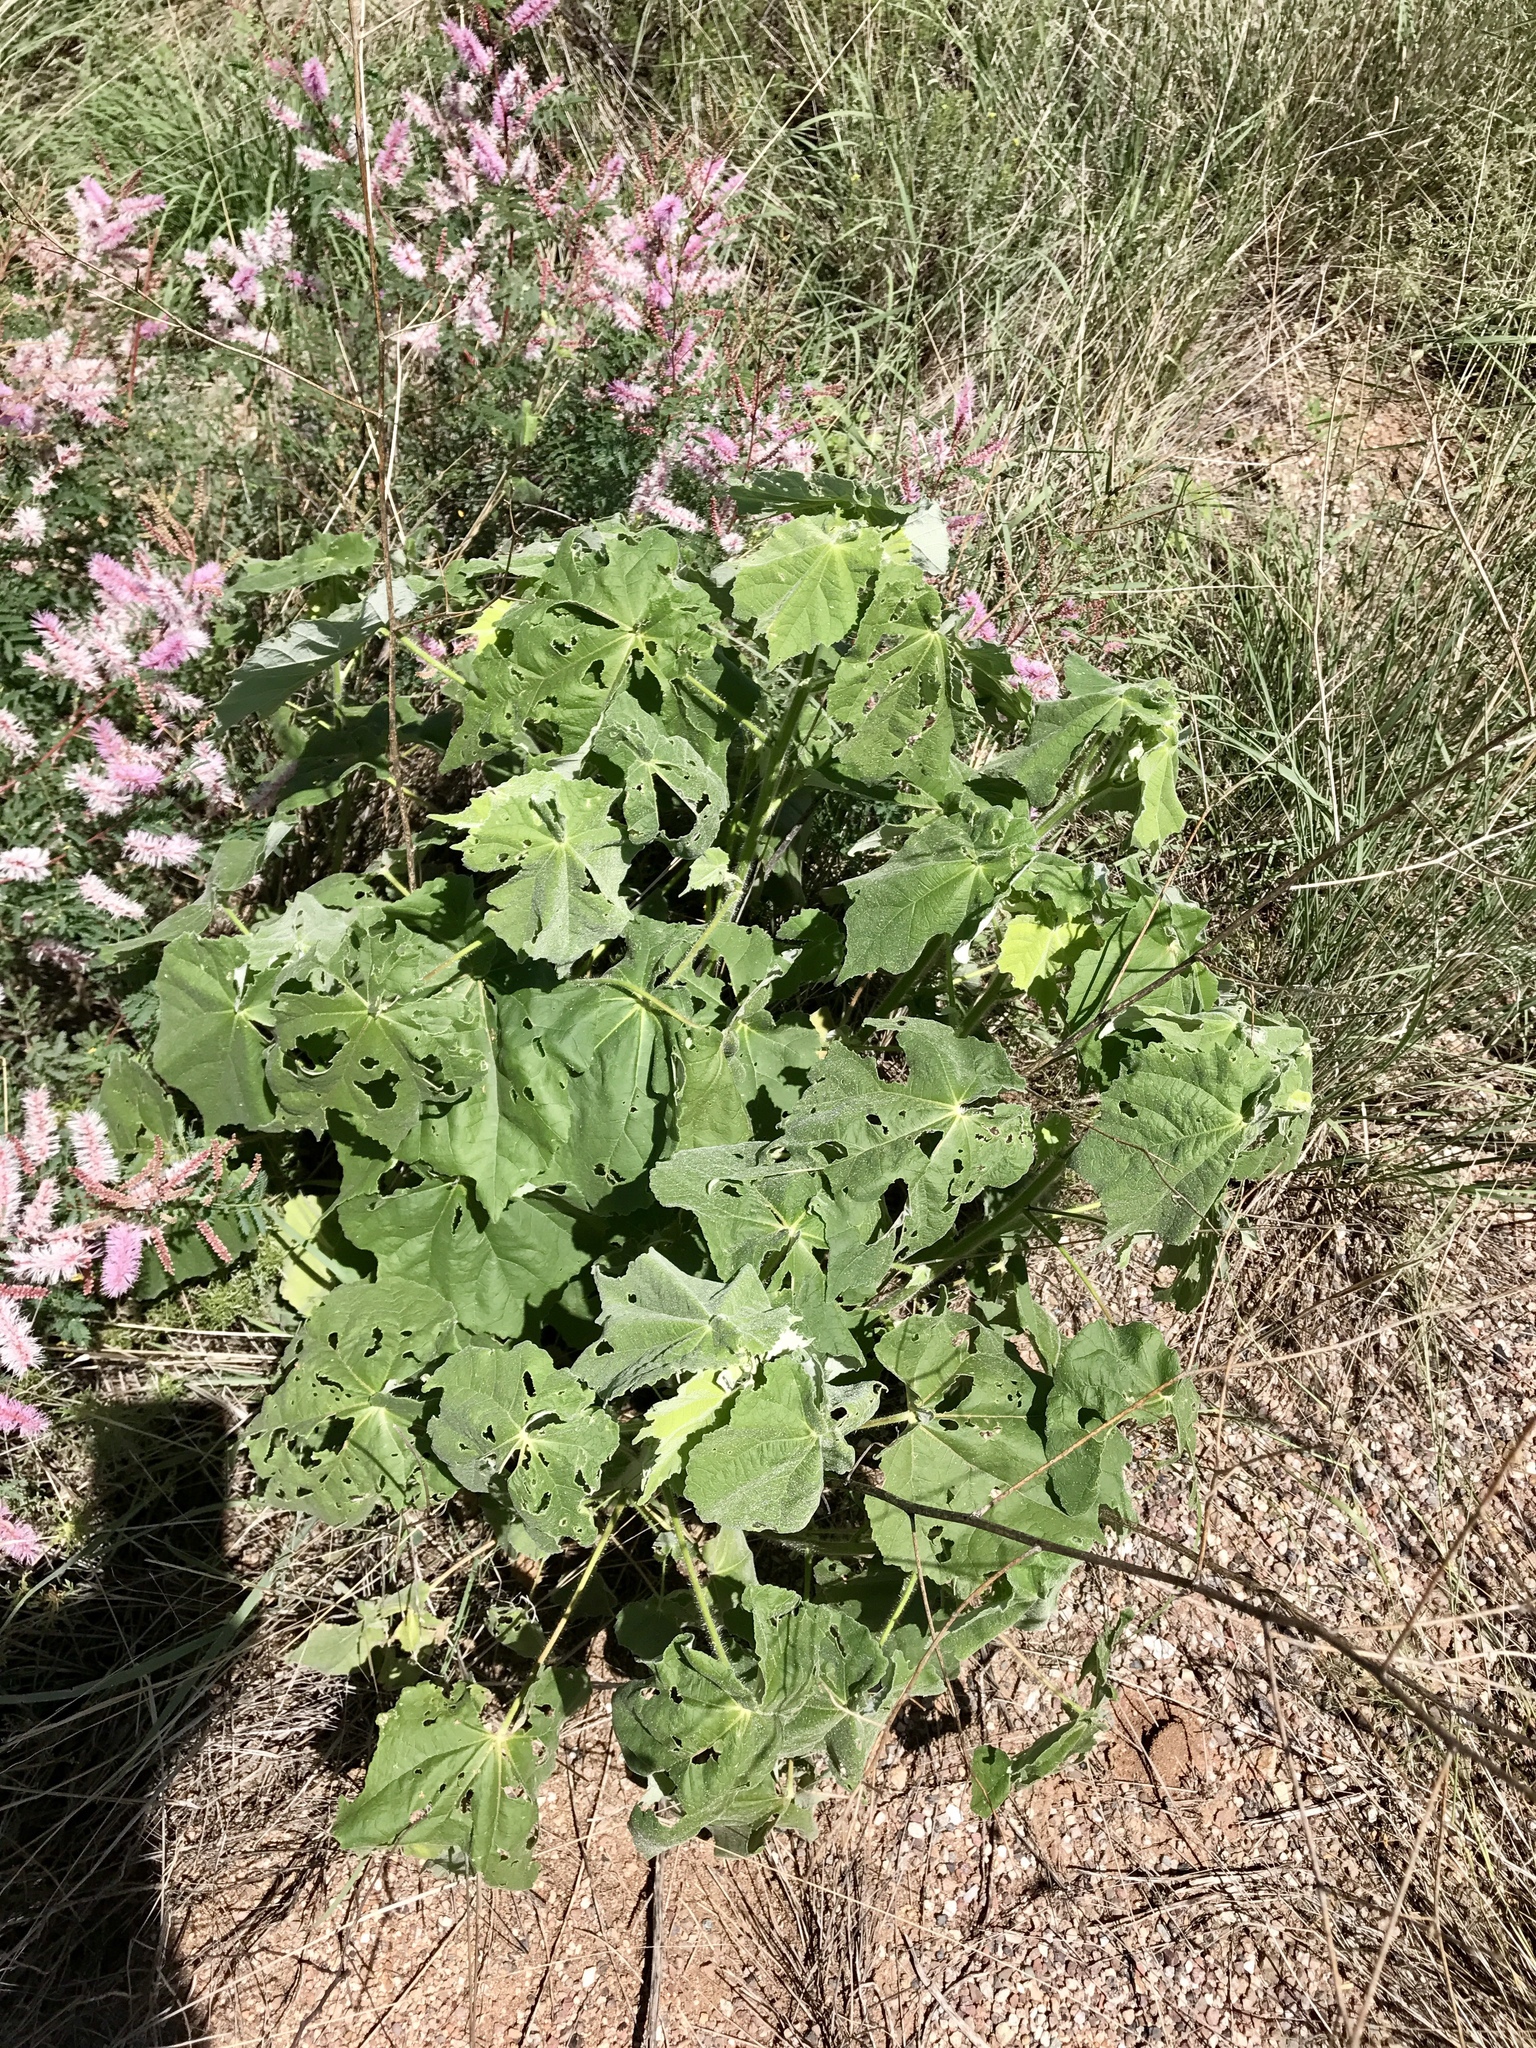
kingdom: Plantae
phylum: Tracheophyta
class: Magnoliopsida
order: Malvales
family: Malvaceae
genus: Abutilon
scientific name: Abutilon mollicomum
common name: Sonoran indian-mallow
